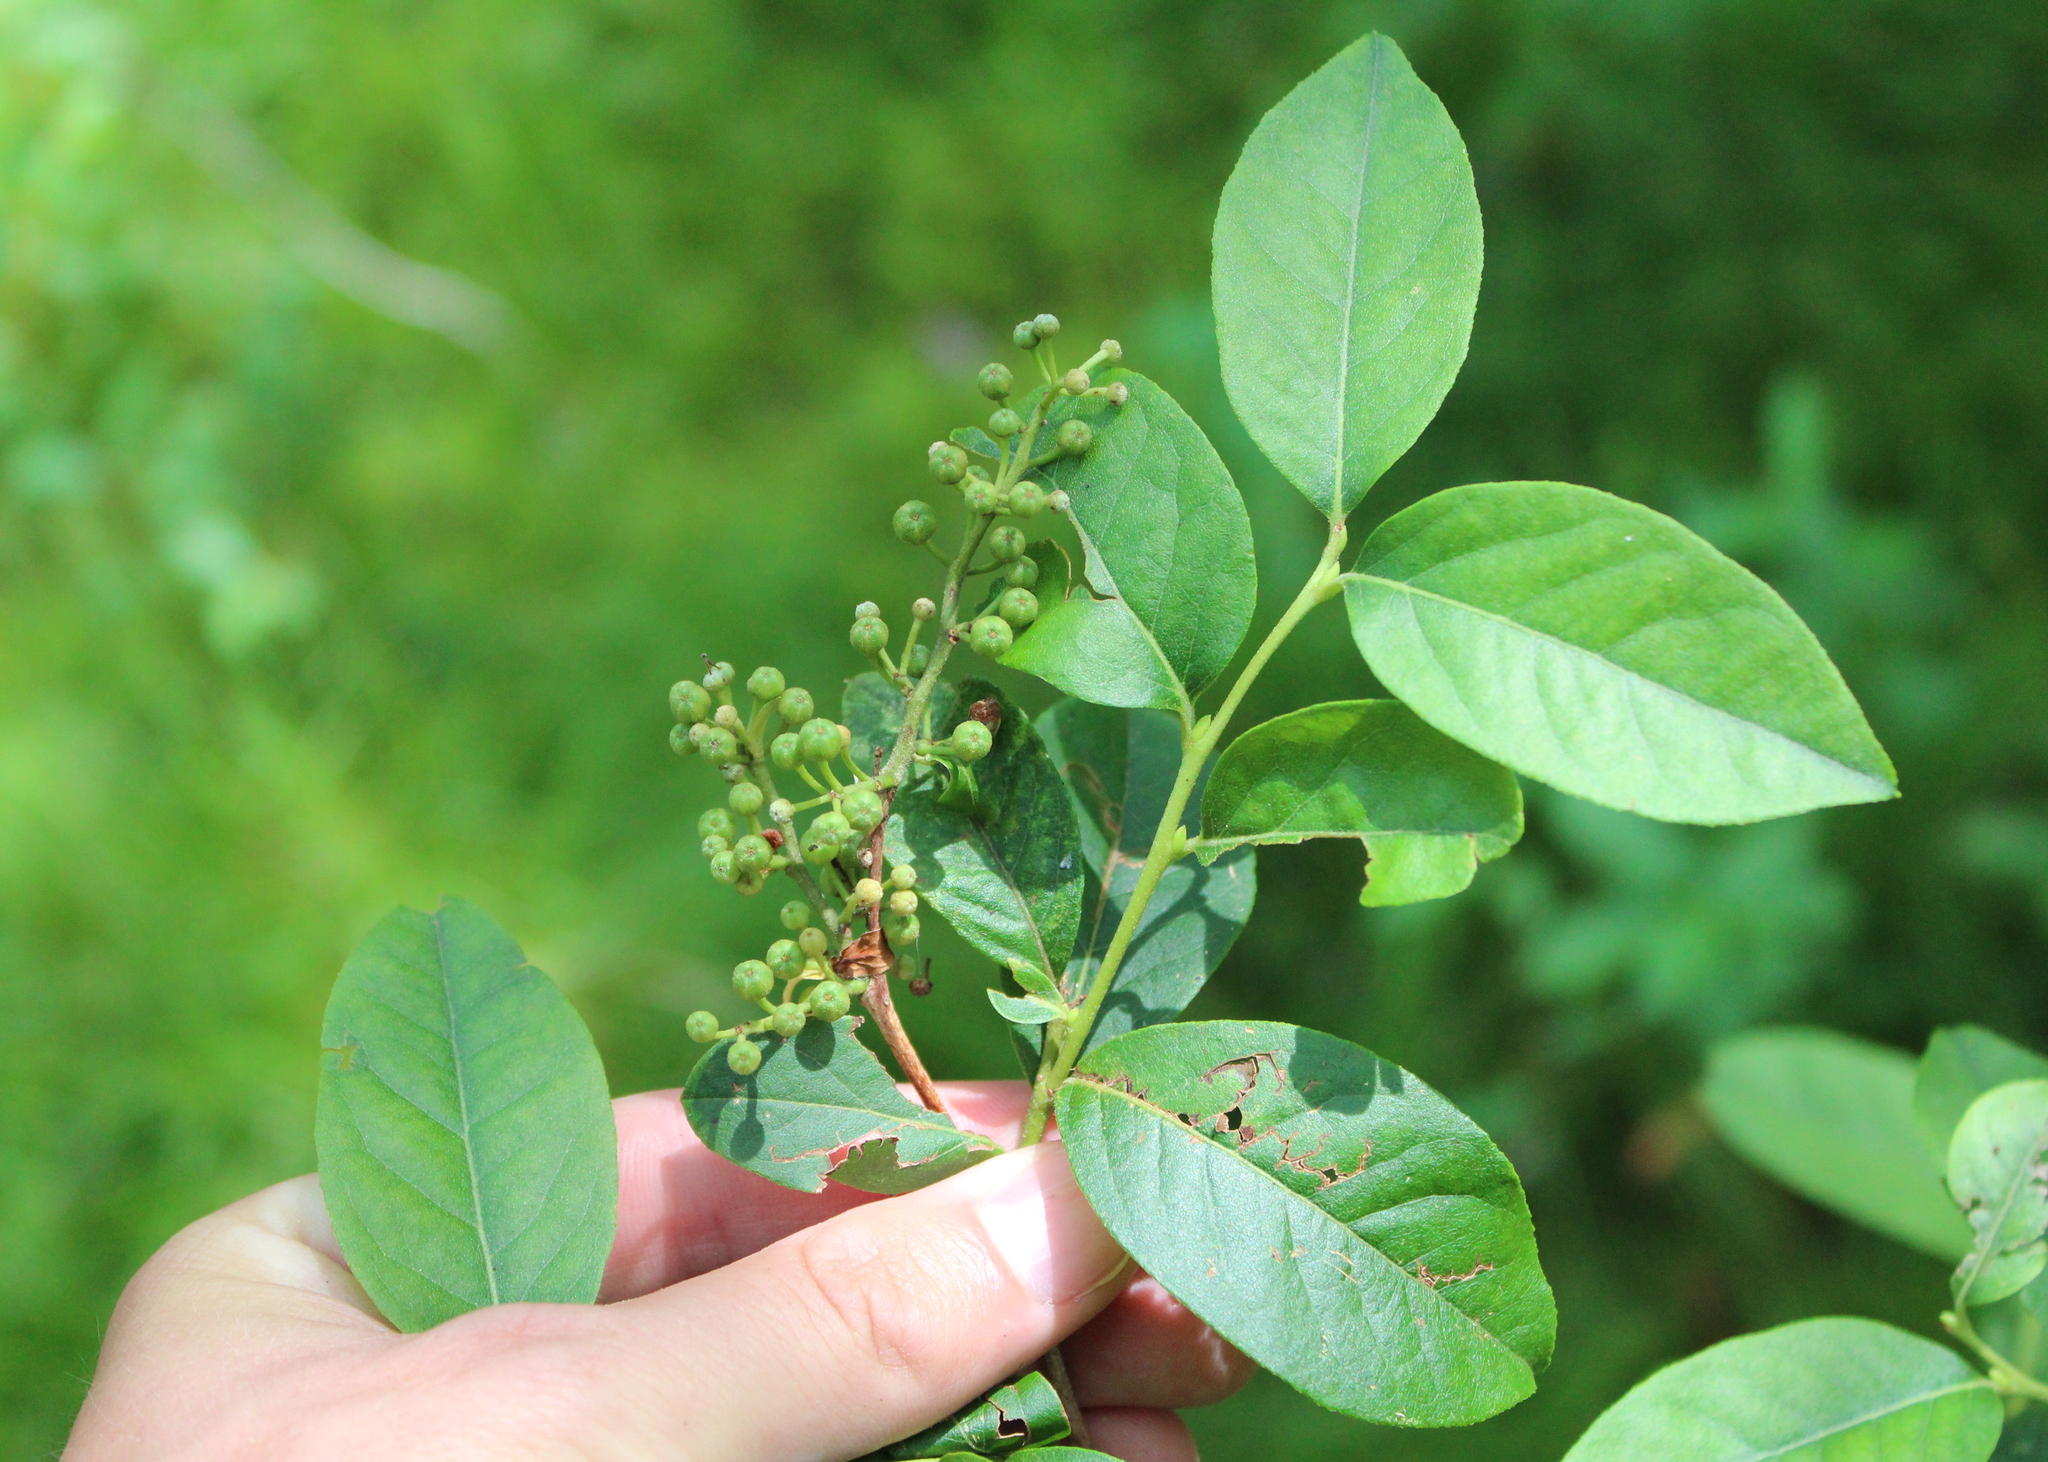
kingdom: Plantae
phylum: Tracheophyta
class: Magnoliopsida
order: Ericales
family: Ericaceae
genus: Lyonia
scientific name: Lyonia ligustrina
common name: Maleberry
